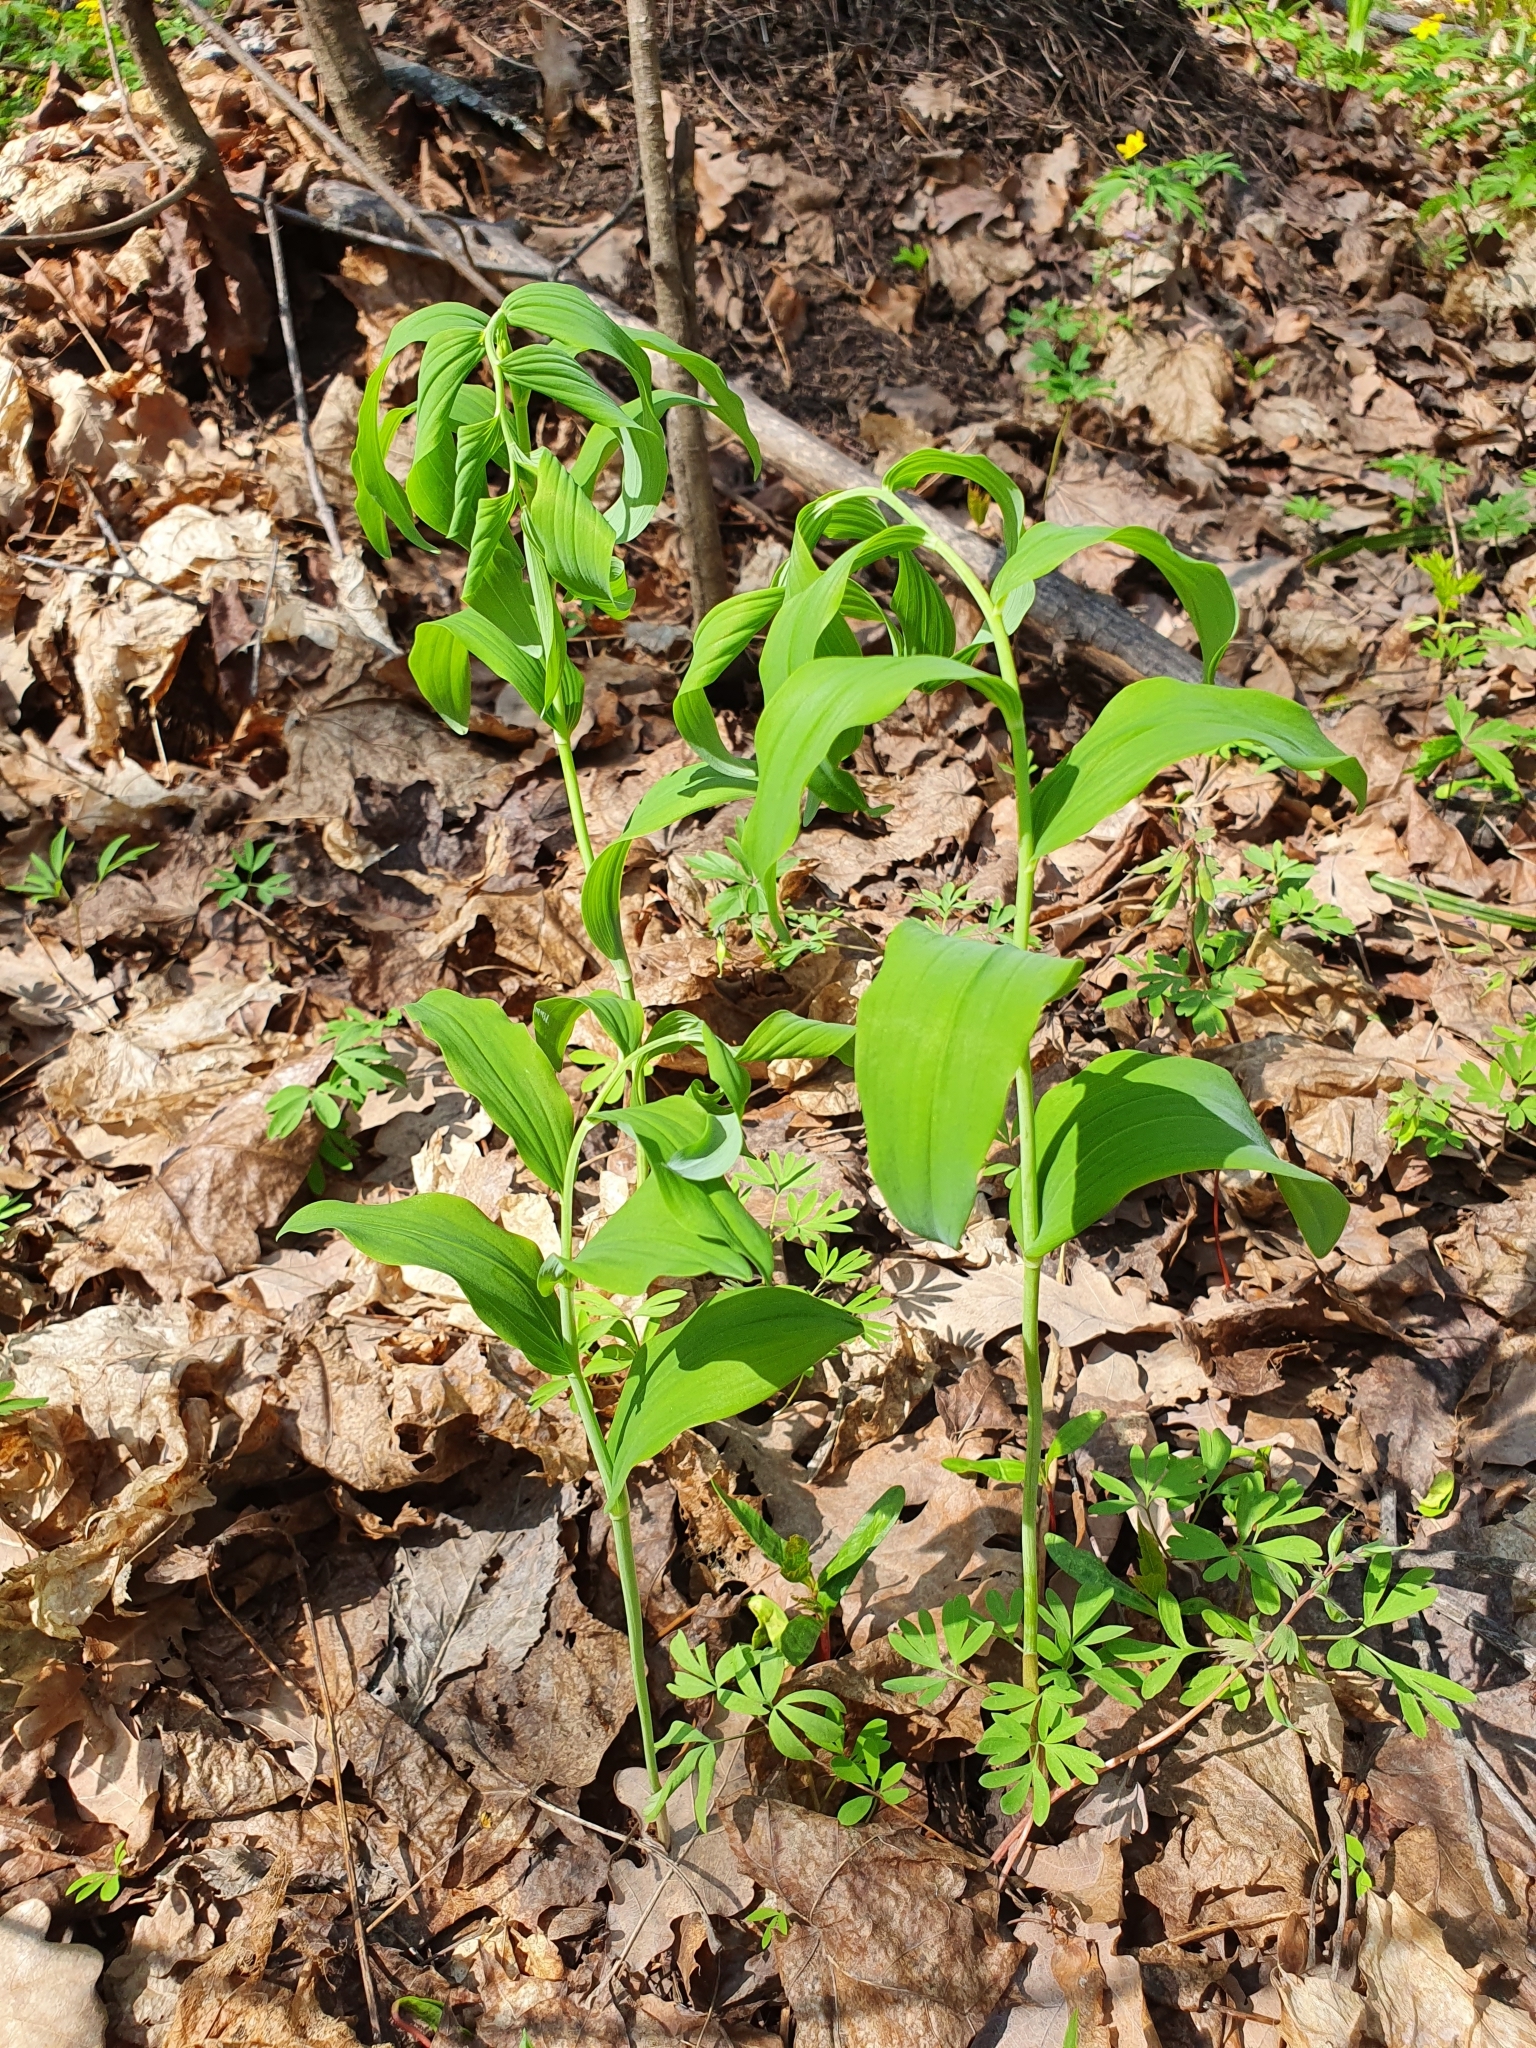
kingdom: Plantae
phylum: Tracheophyta
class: Liliopsida
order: Asparagales
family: Asparagaceae
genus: Polygonatum
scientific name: Polygonatum odoratum
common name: Angular solomon's-seal
